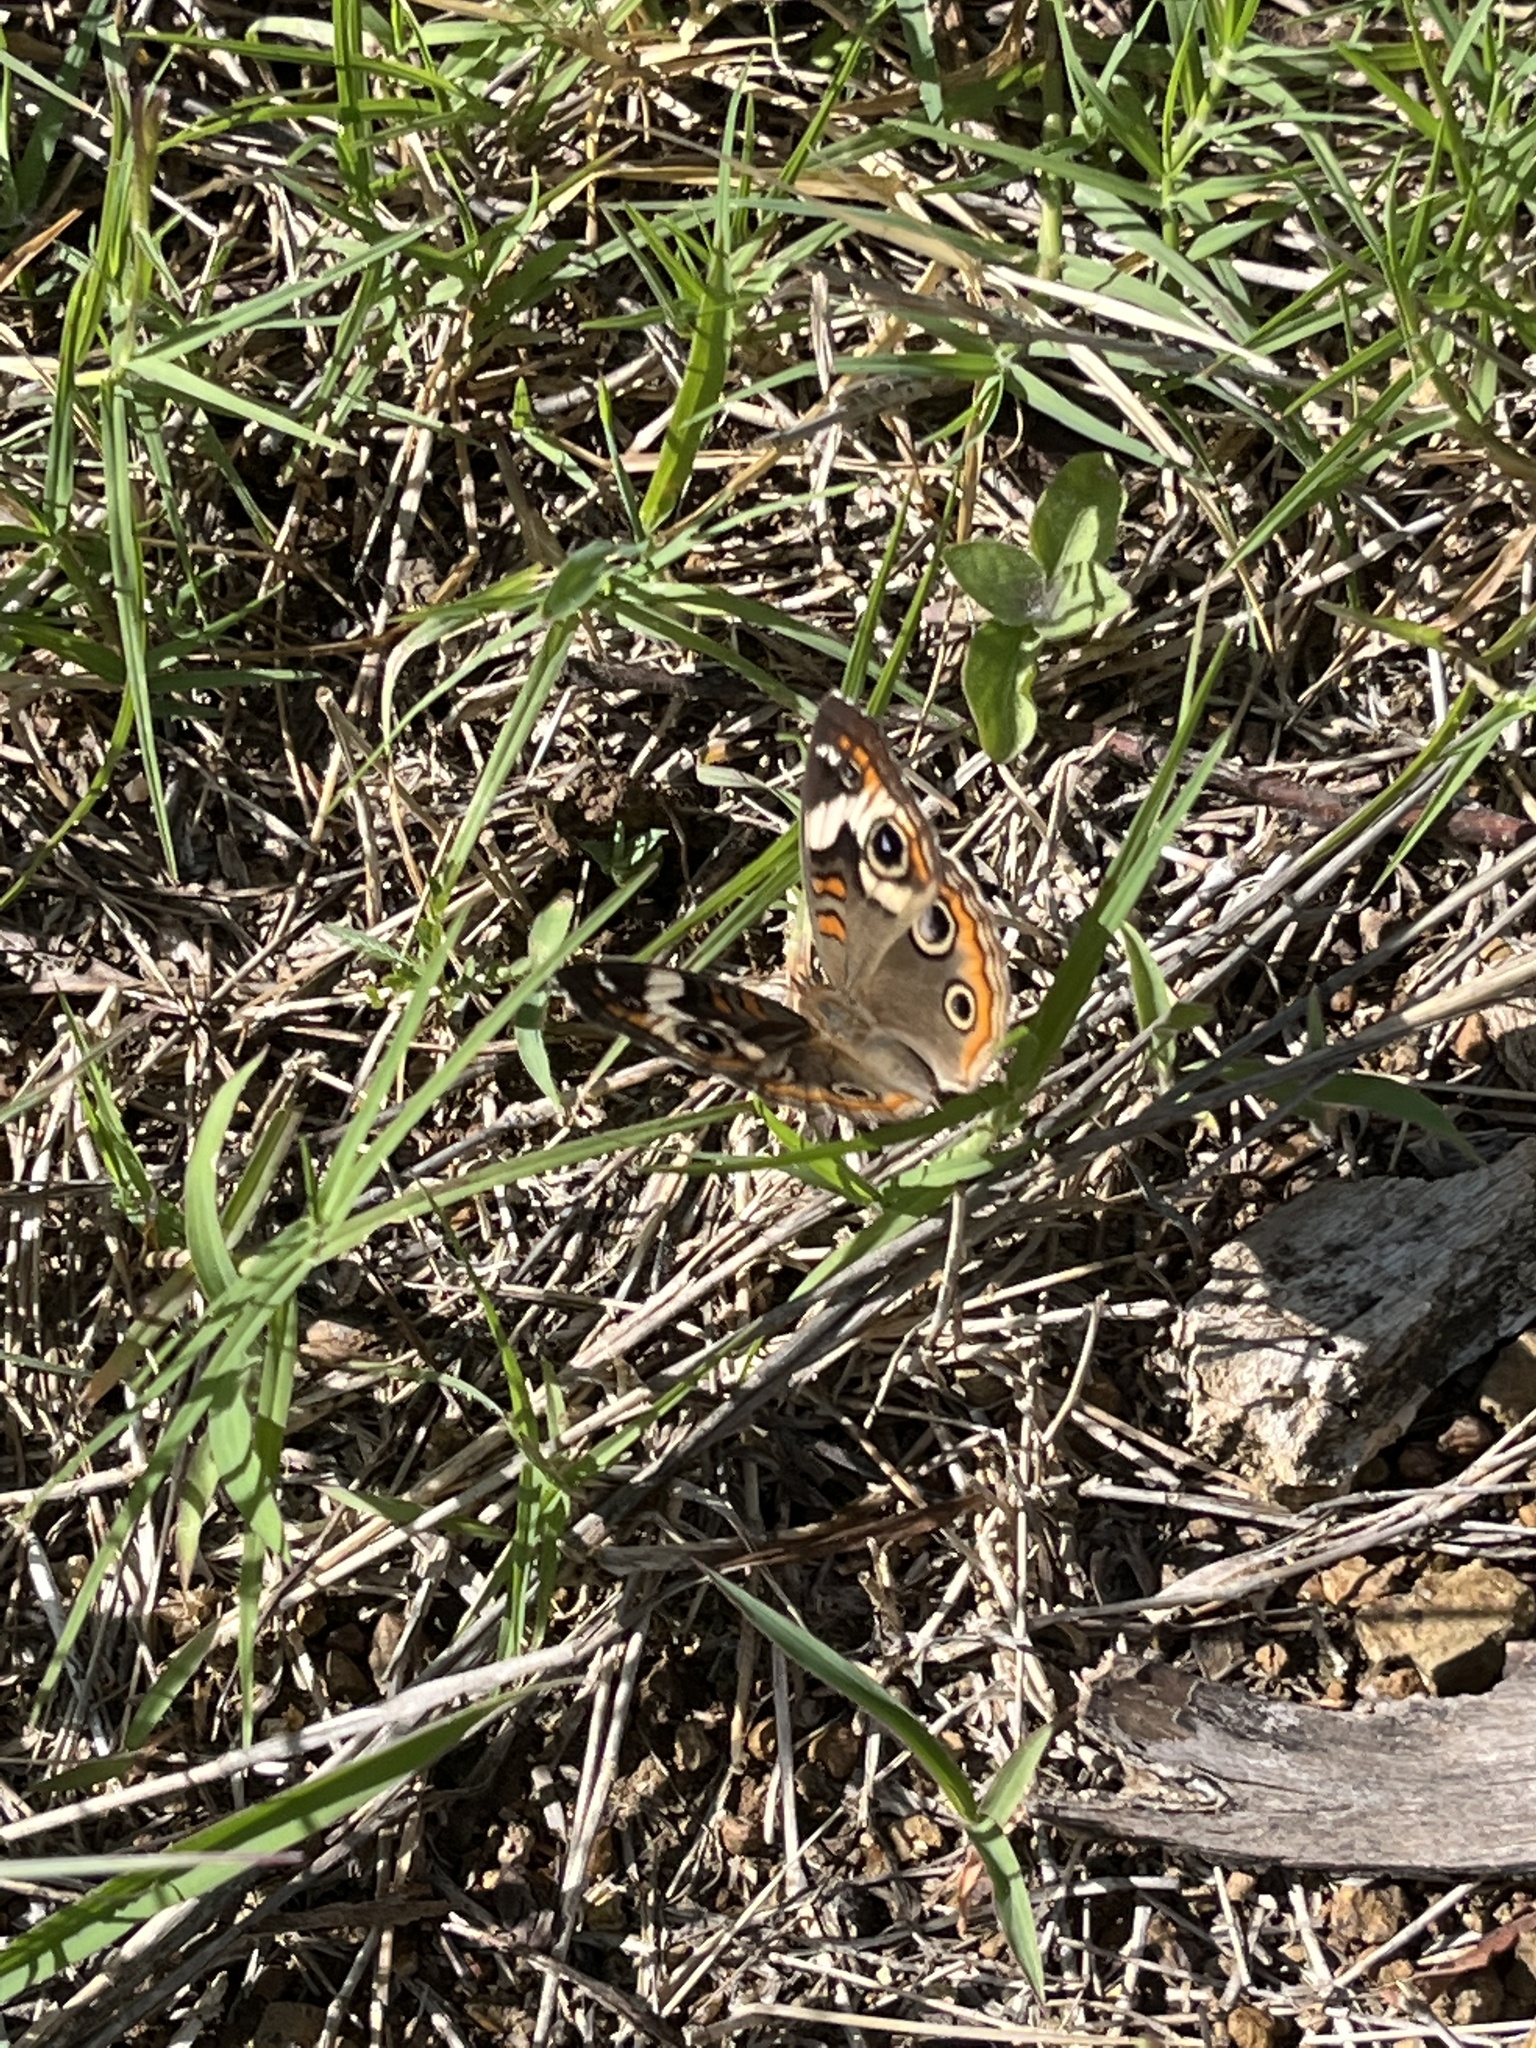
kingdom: Animalia
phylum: Arthropoda
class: Insecta
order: Lepidoptera
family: Nymphalidae
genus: Junonia
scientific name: Junonia coenia
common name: Common buckeye
